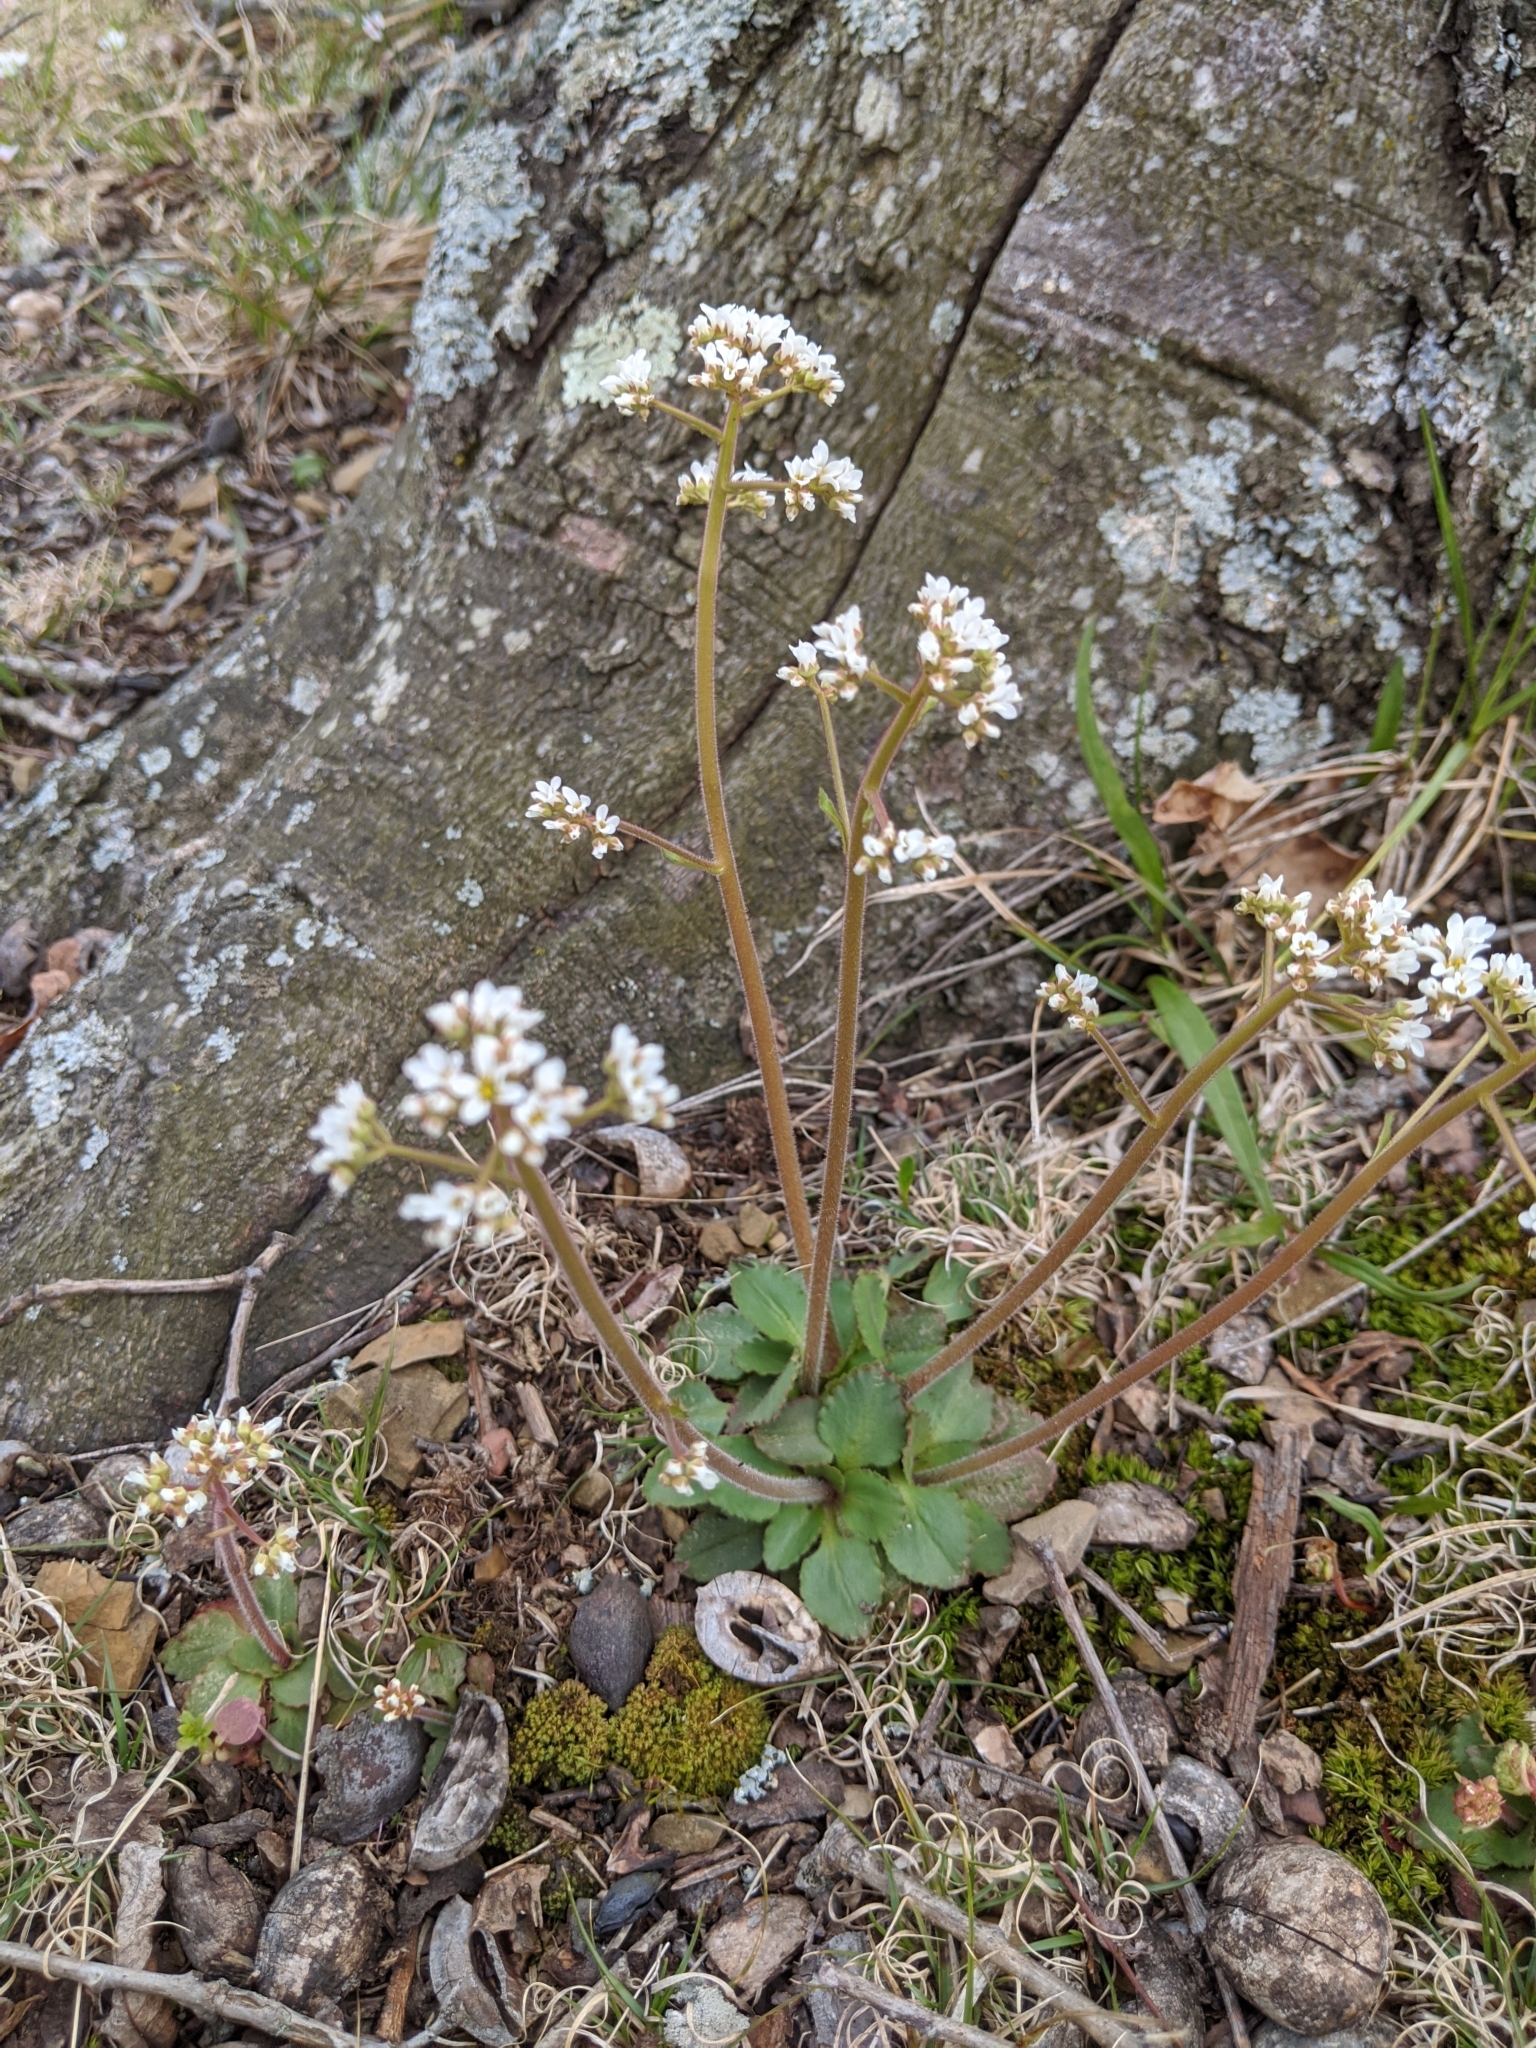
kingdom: Plantae
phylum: Tracheophyta
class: Magnoliopsida
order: Saxifragales
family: Saxifragaceae
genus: Micranthes
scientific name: Micranthes virginiensis
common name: Early saxifrage
